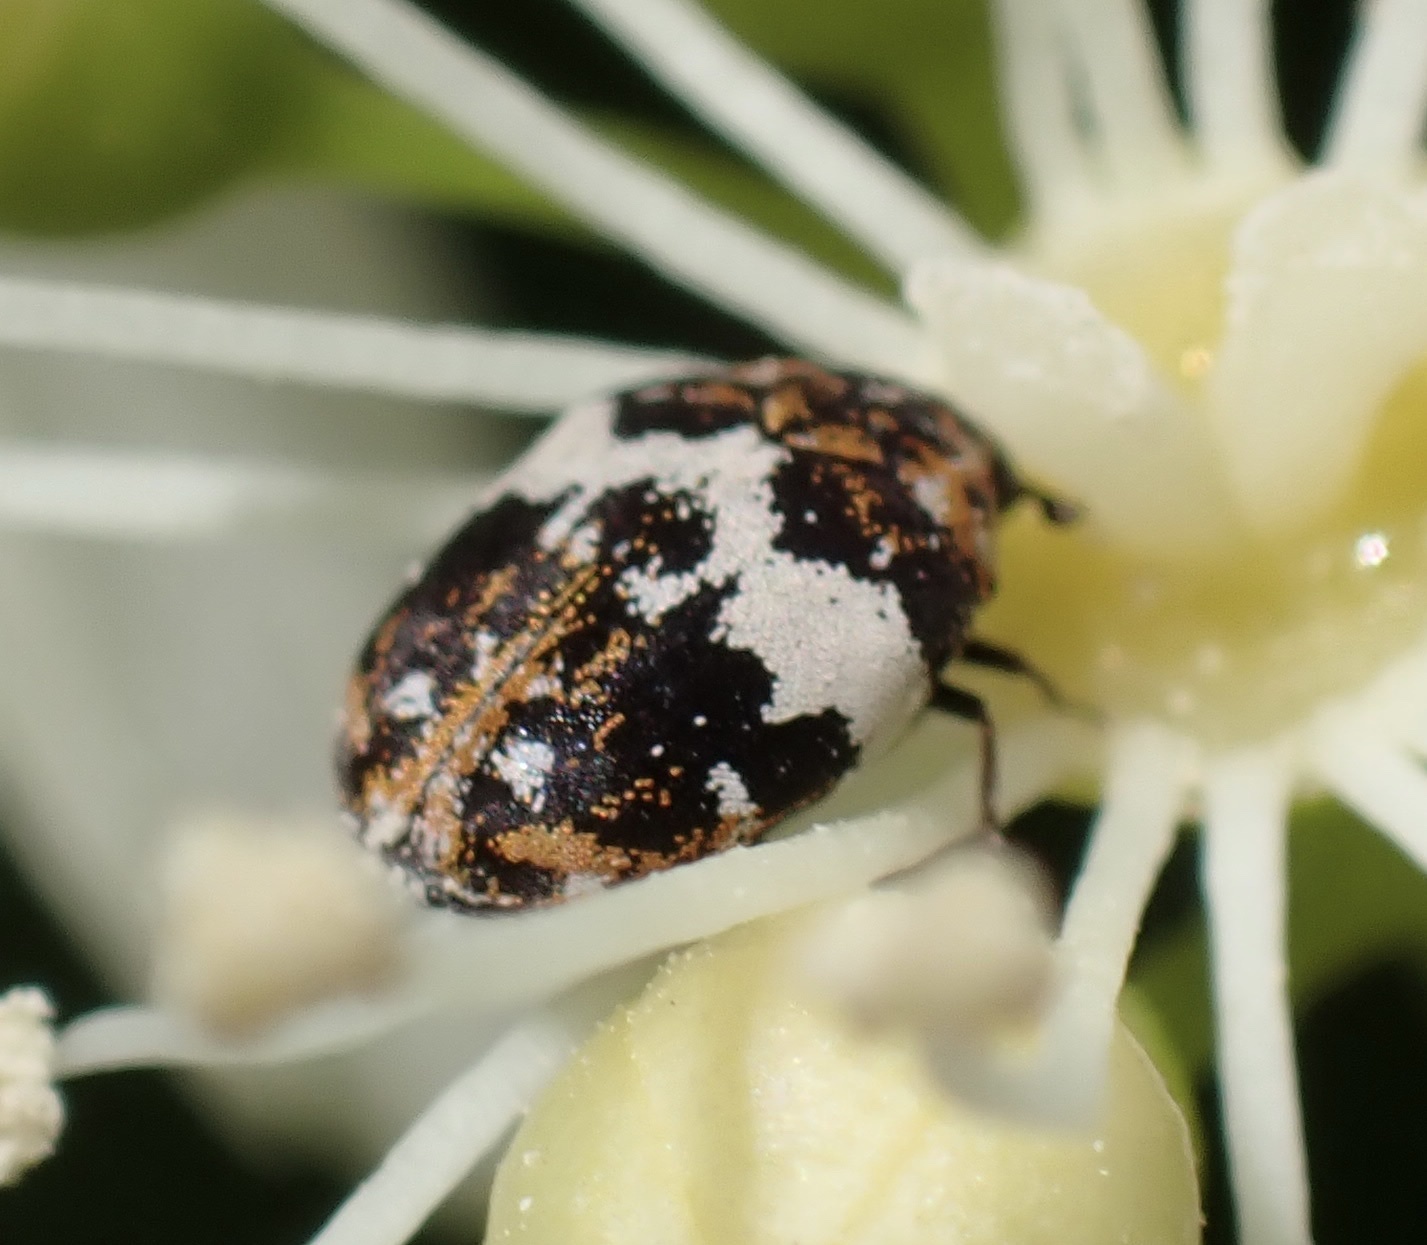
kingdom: Animalia
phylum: Arthropoda
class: Insecta
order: Coleoptera
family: Dermestidae
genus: Anthrenus
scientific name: Anthrenus pimpinellae
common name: Dermestid beetle
